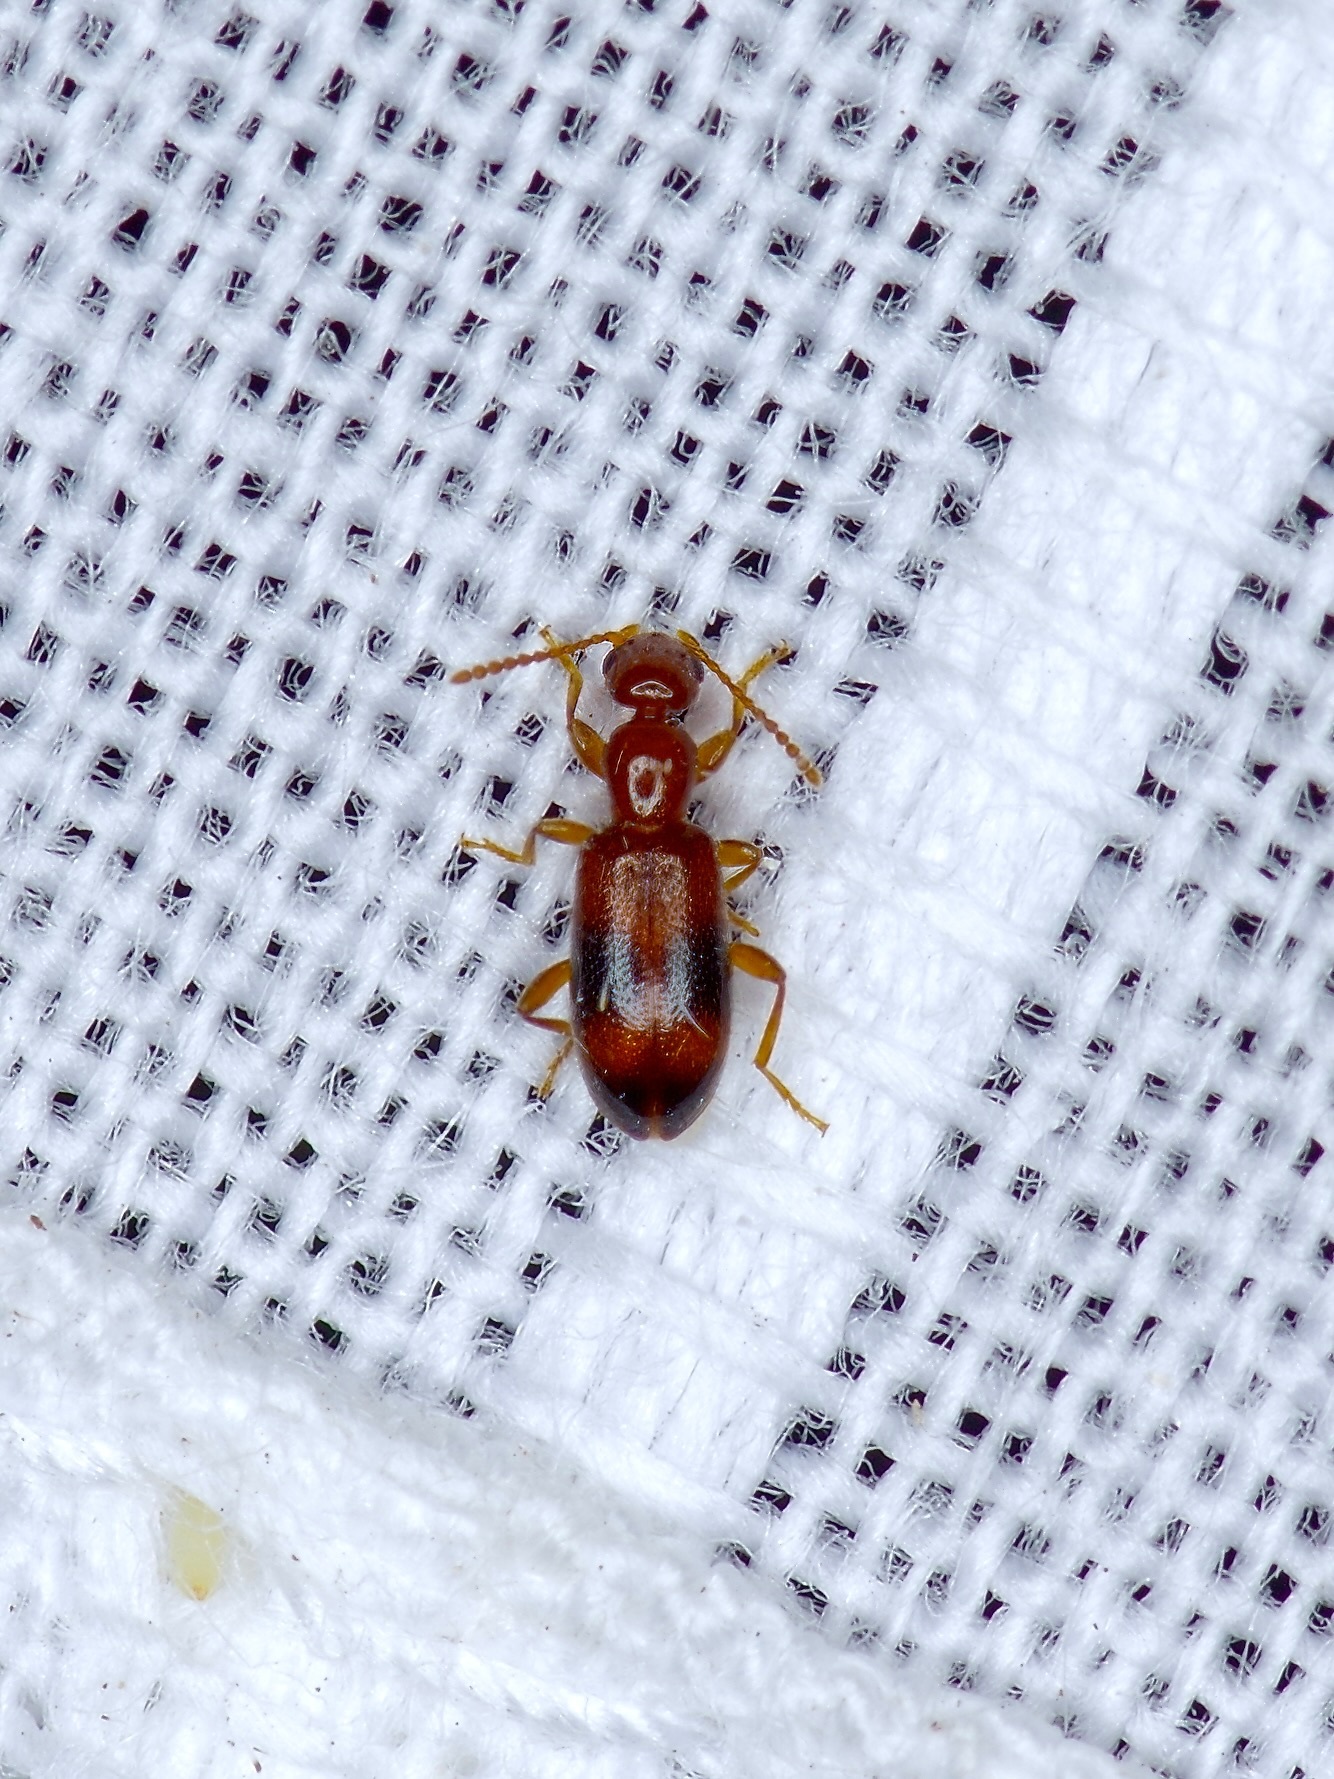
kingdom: Animalia
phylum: Arthropoda
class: Insecta
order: Coleoptera
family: Anthicidae
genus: Vacusus
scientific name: Vacusus vicinus
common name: Antlike flower beetle
